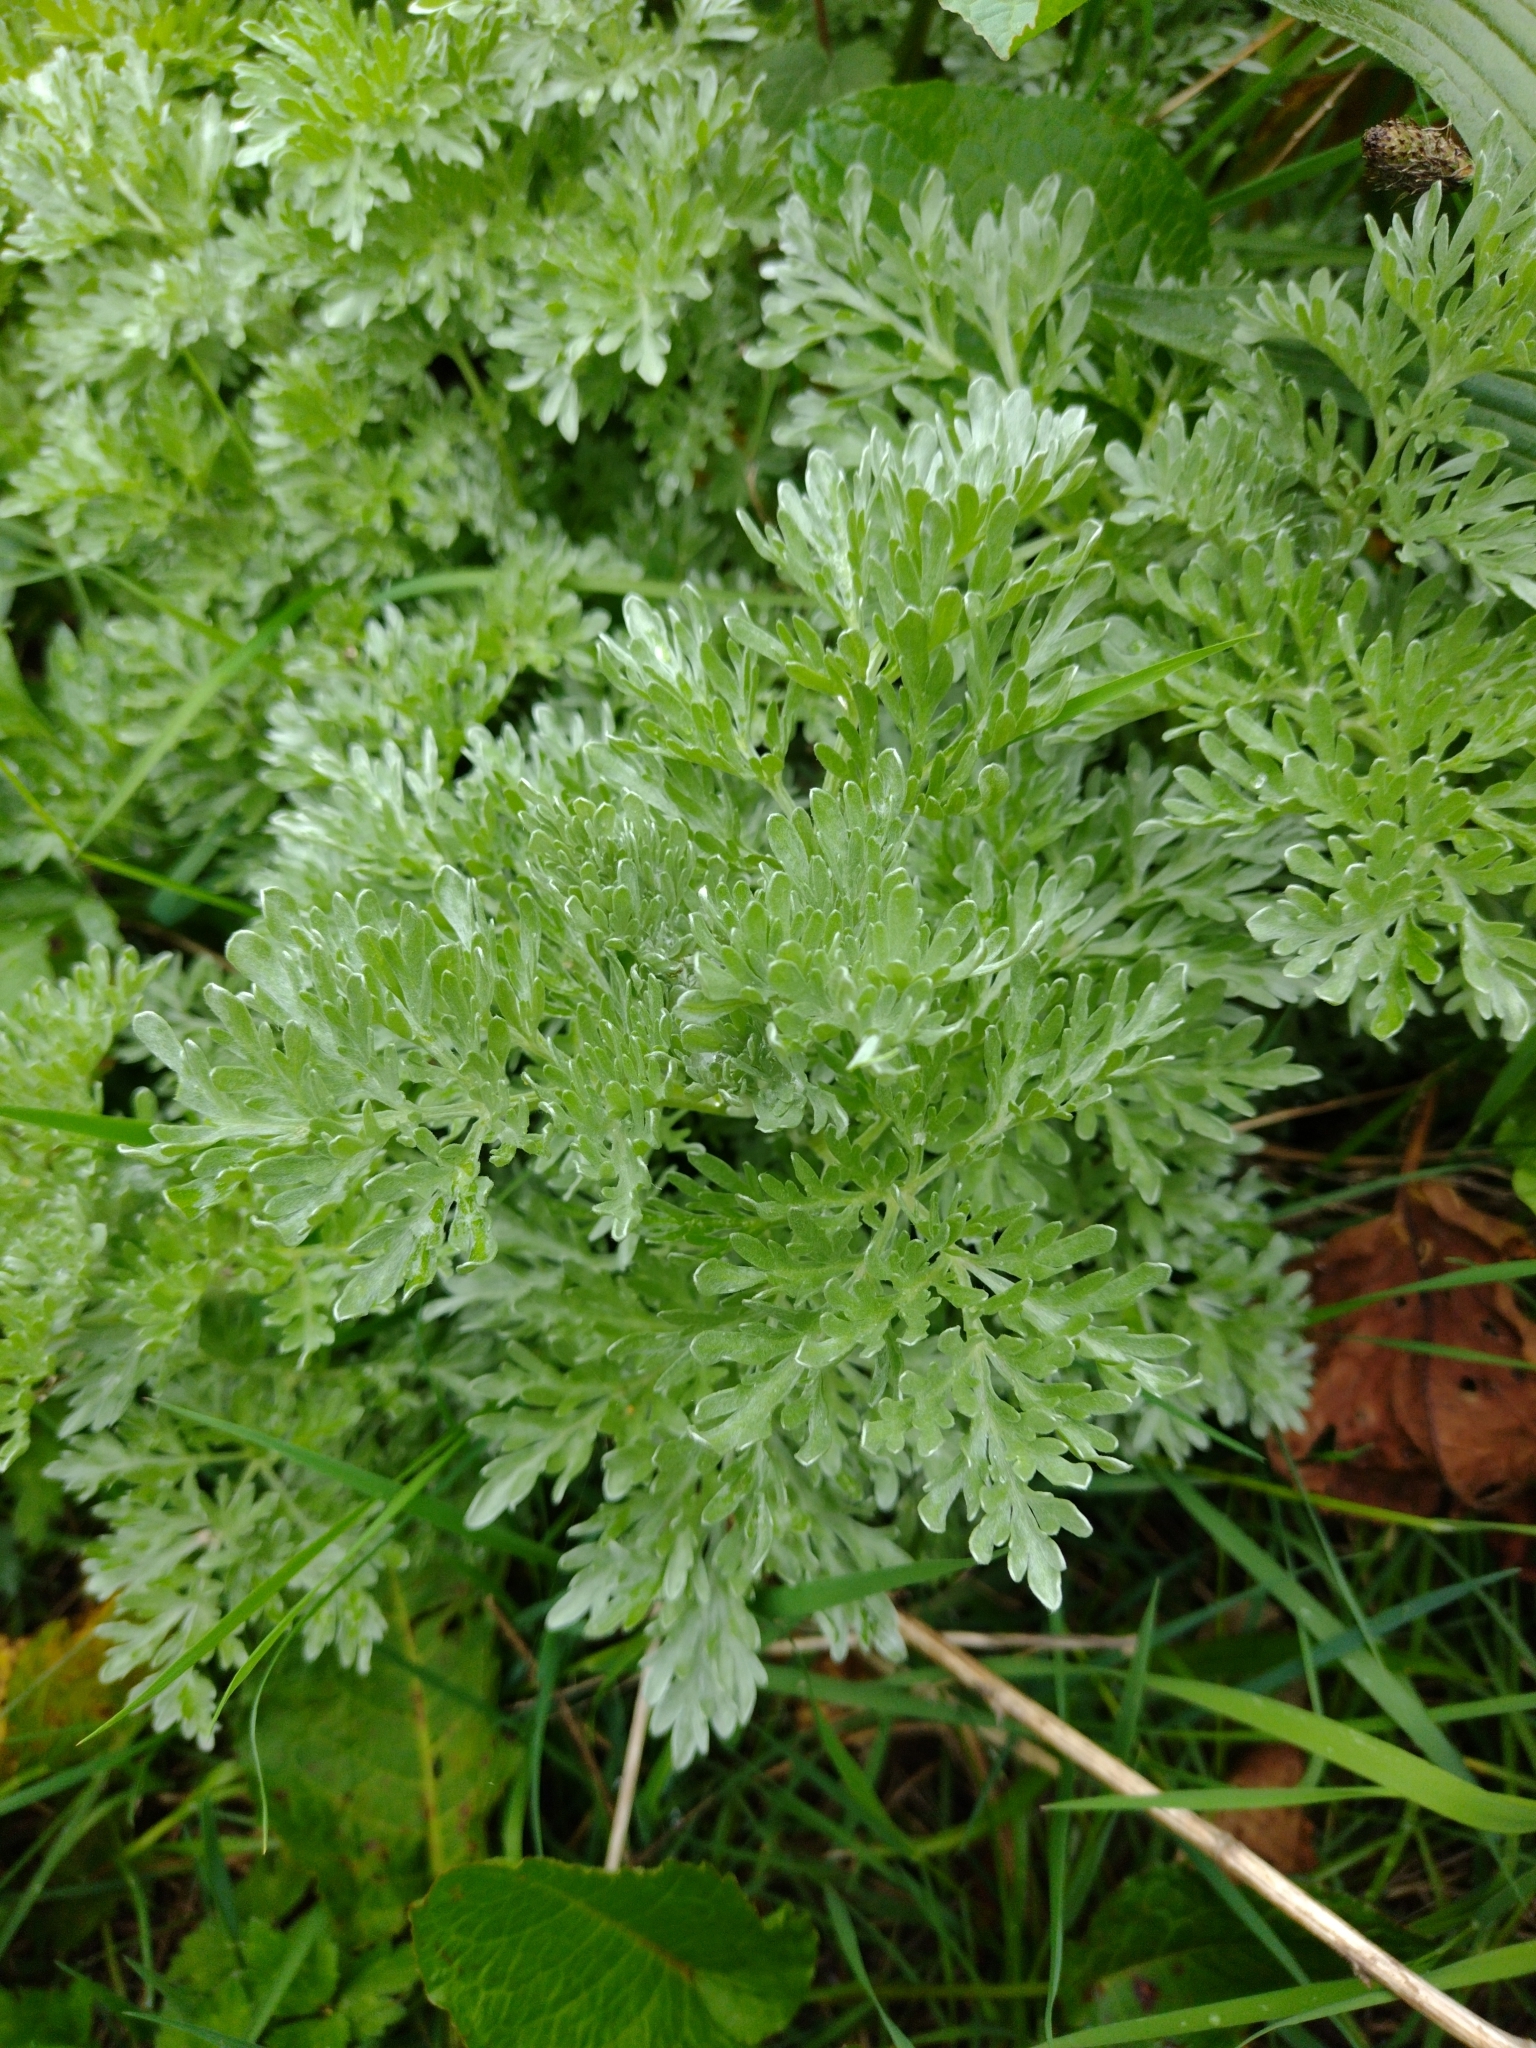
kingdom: Plantae
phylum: Tracheophyta
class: Magnoliopsida
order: Asterales
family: Asteraceae
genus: Artemisia
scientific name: Artemisia absinthium
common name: Wormwood
